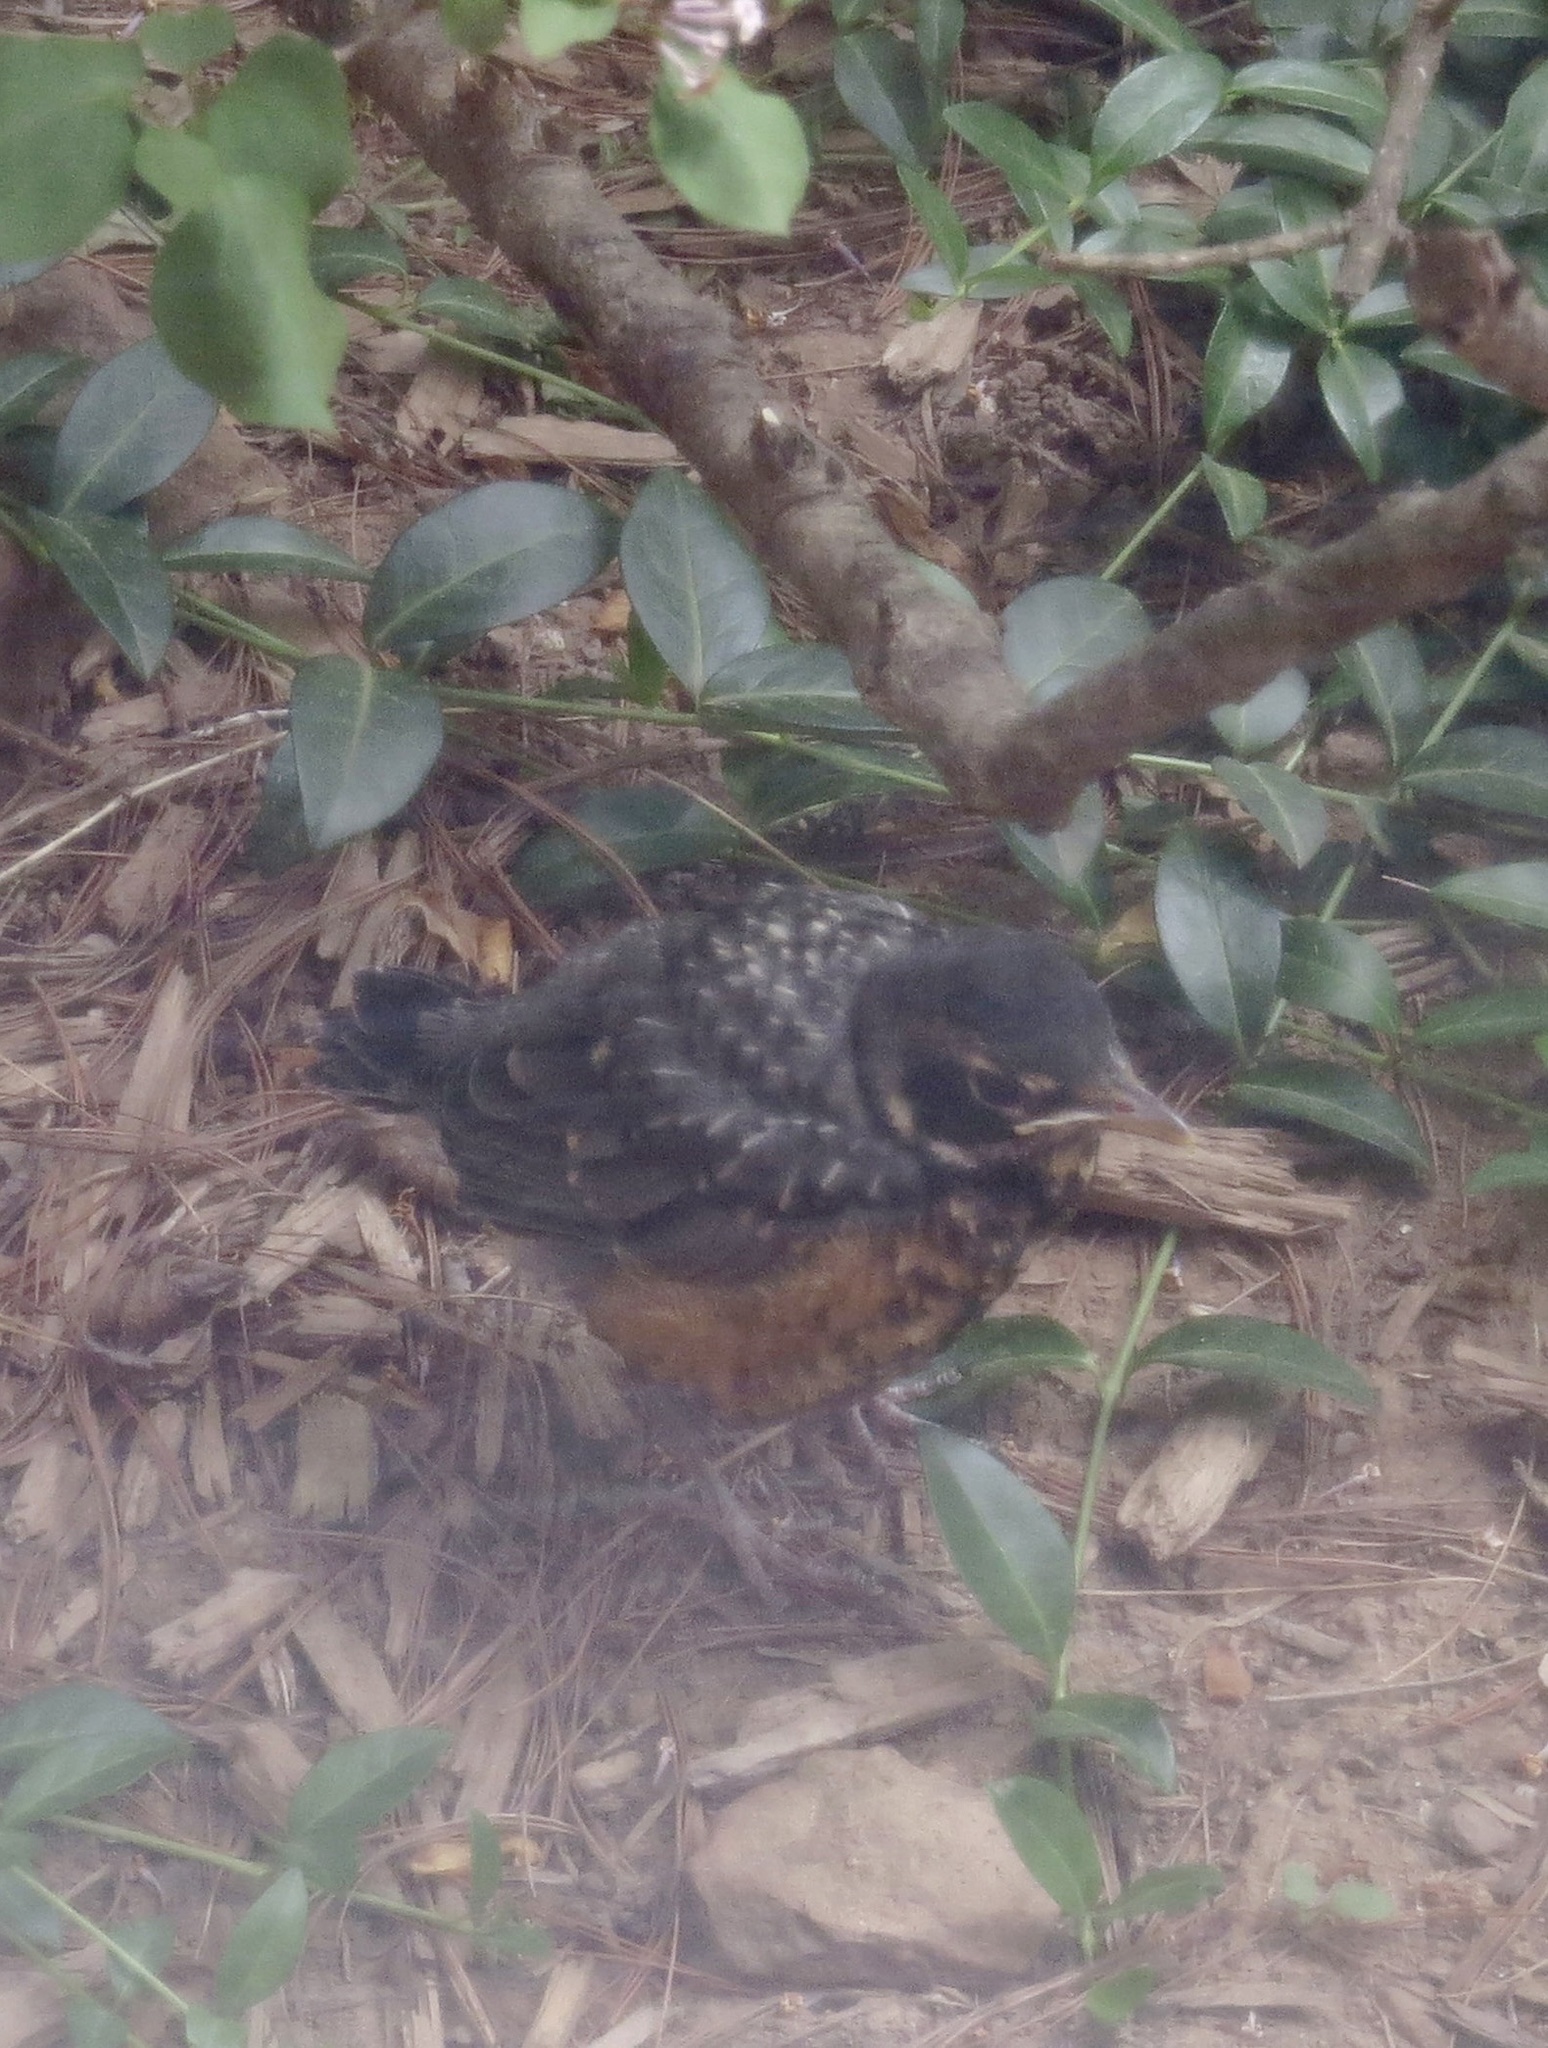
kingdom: Animalia
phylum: Chordata
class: Aves
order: Passeriformes
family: Turdidae
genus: Turdus
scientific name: Turdus migratorius
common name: American robin
